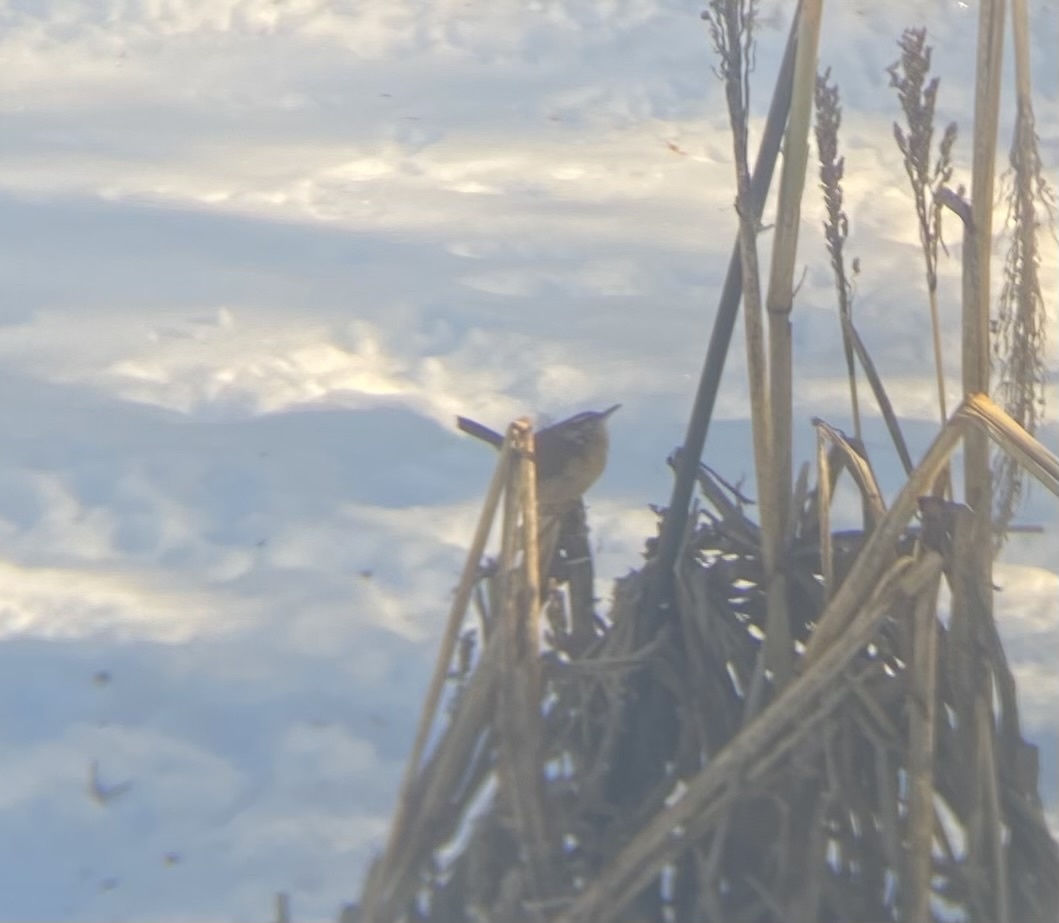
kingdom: Animalia
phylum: Chordata
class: Aves
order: Passeriformes
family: Troglodytidae
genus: Thryothorus
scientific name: Thryothorus ludovicianus
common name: Carolina wren
